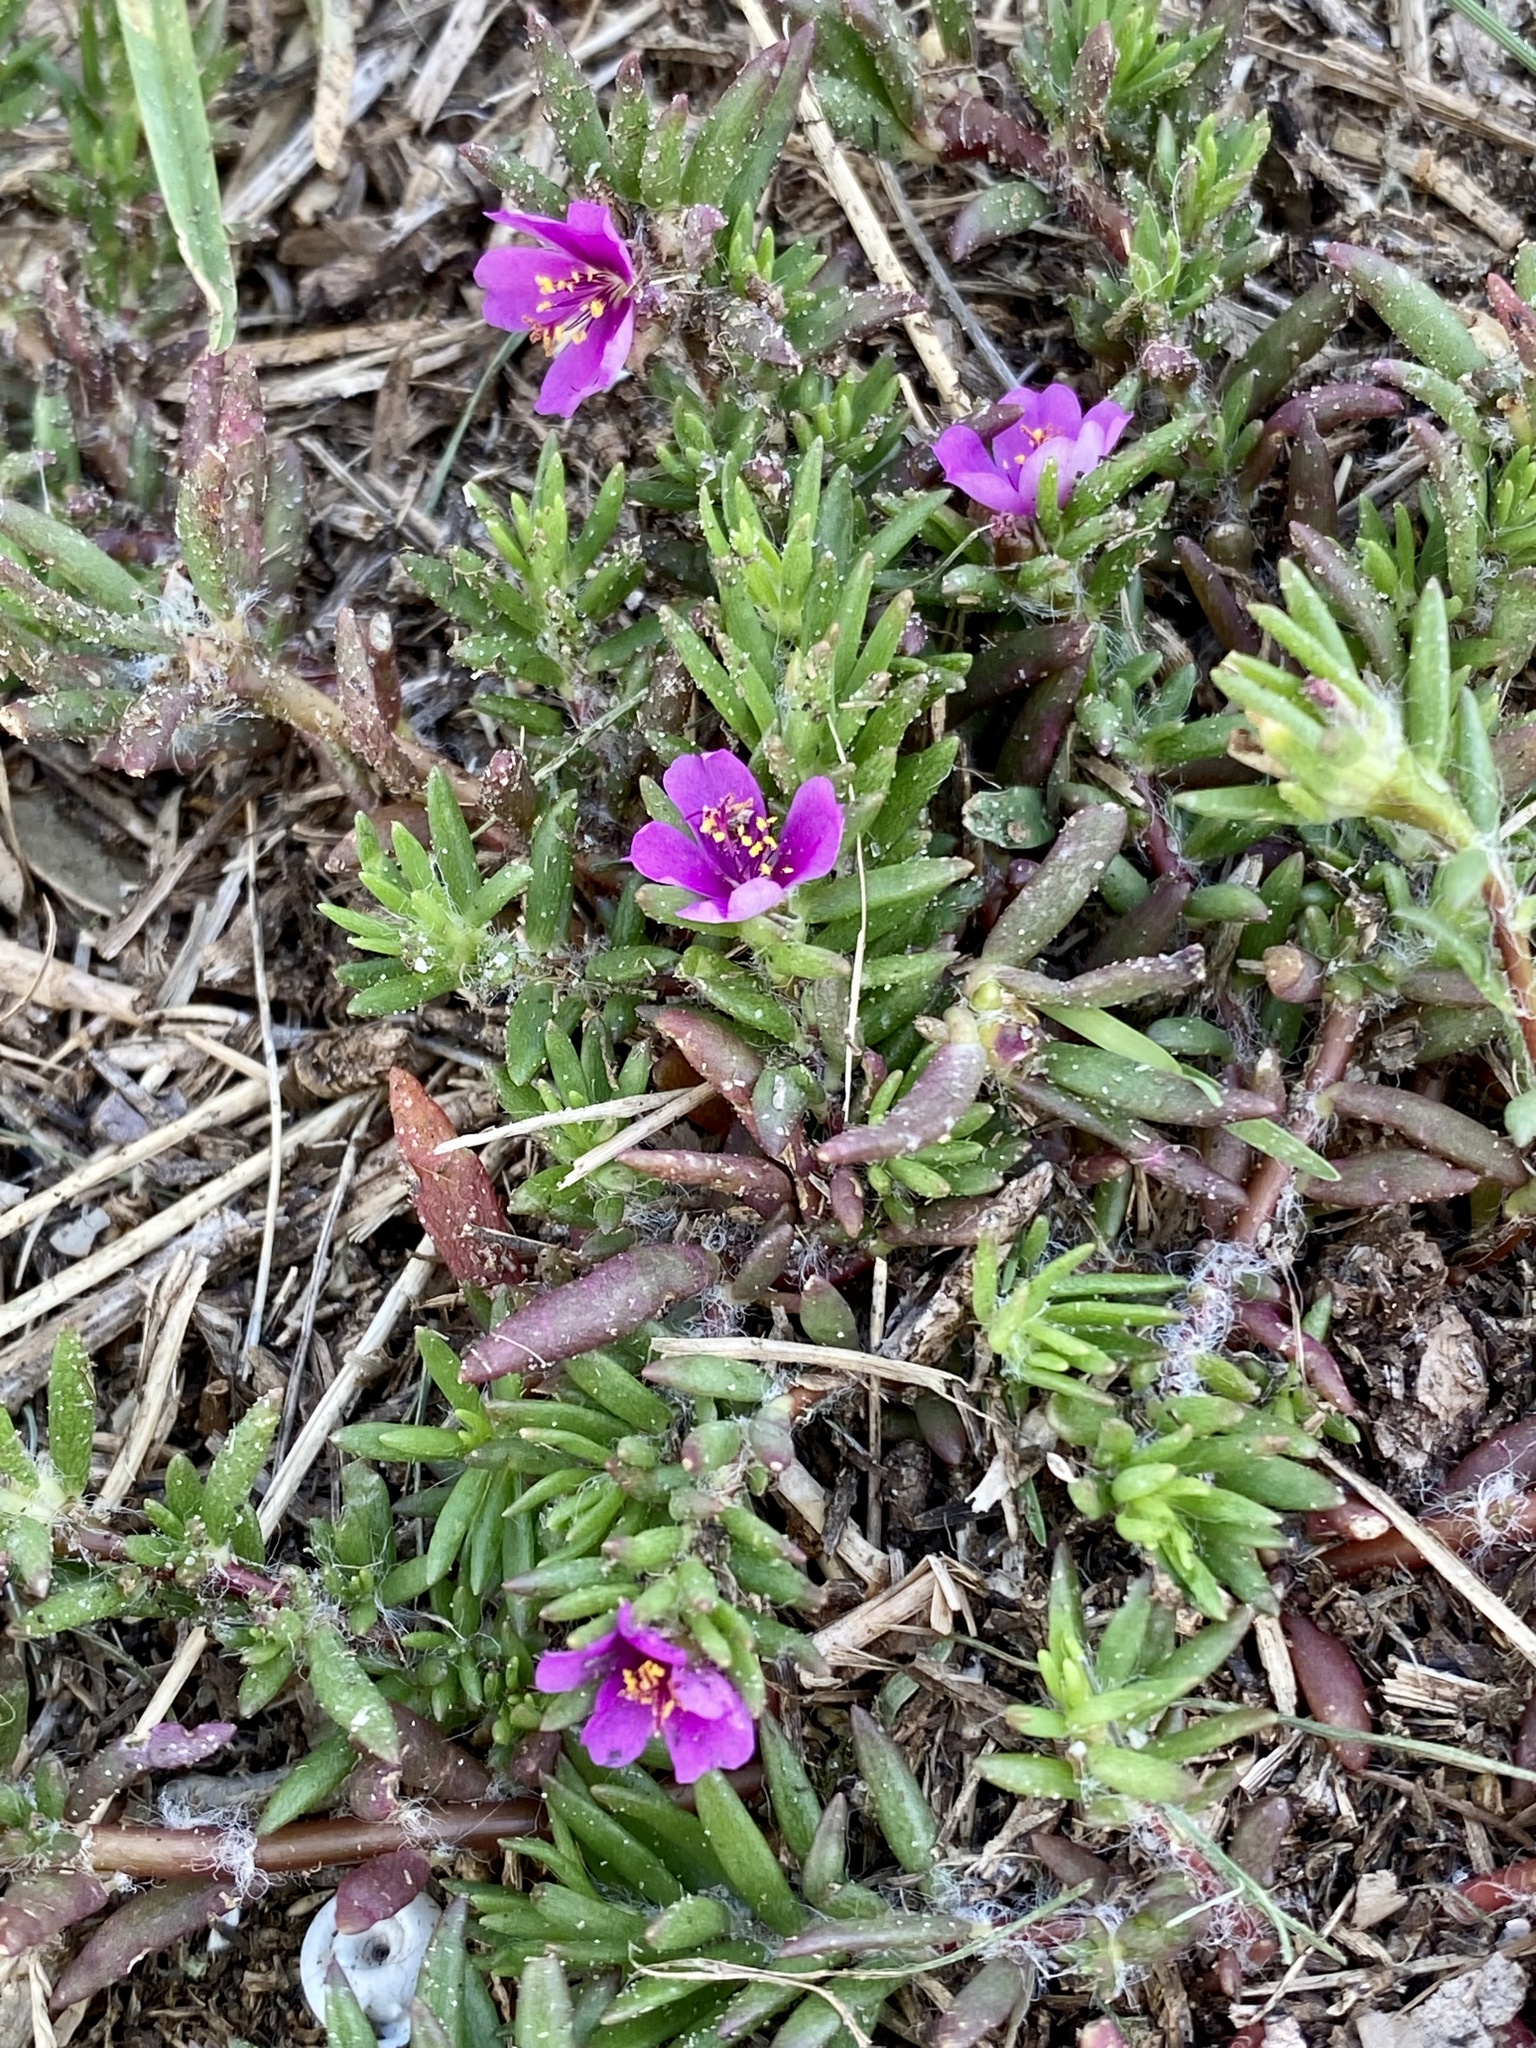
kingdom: Plantae
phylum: Tracheophyta
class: Magnoliopsida
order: Caryophyllales
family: Portulacaceae
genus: Portulaca
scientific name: Portulaca pilosa
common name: Kiss me quick
